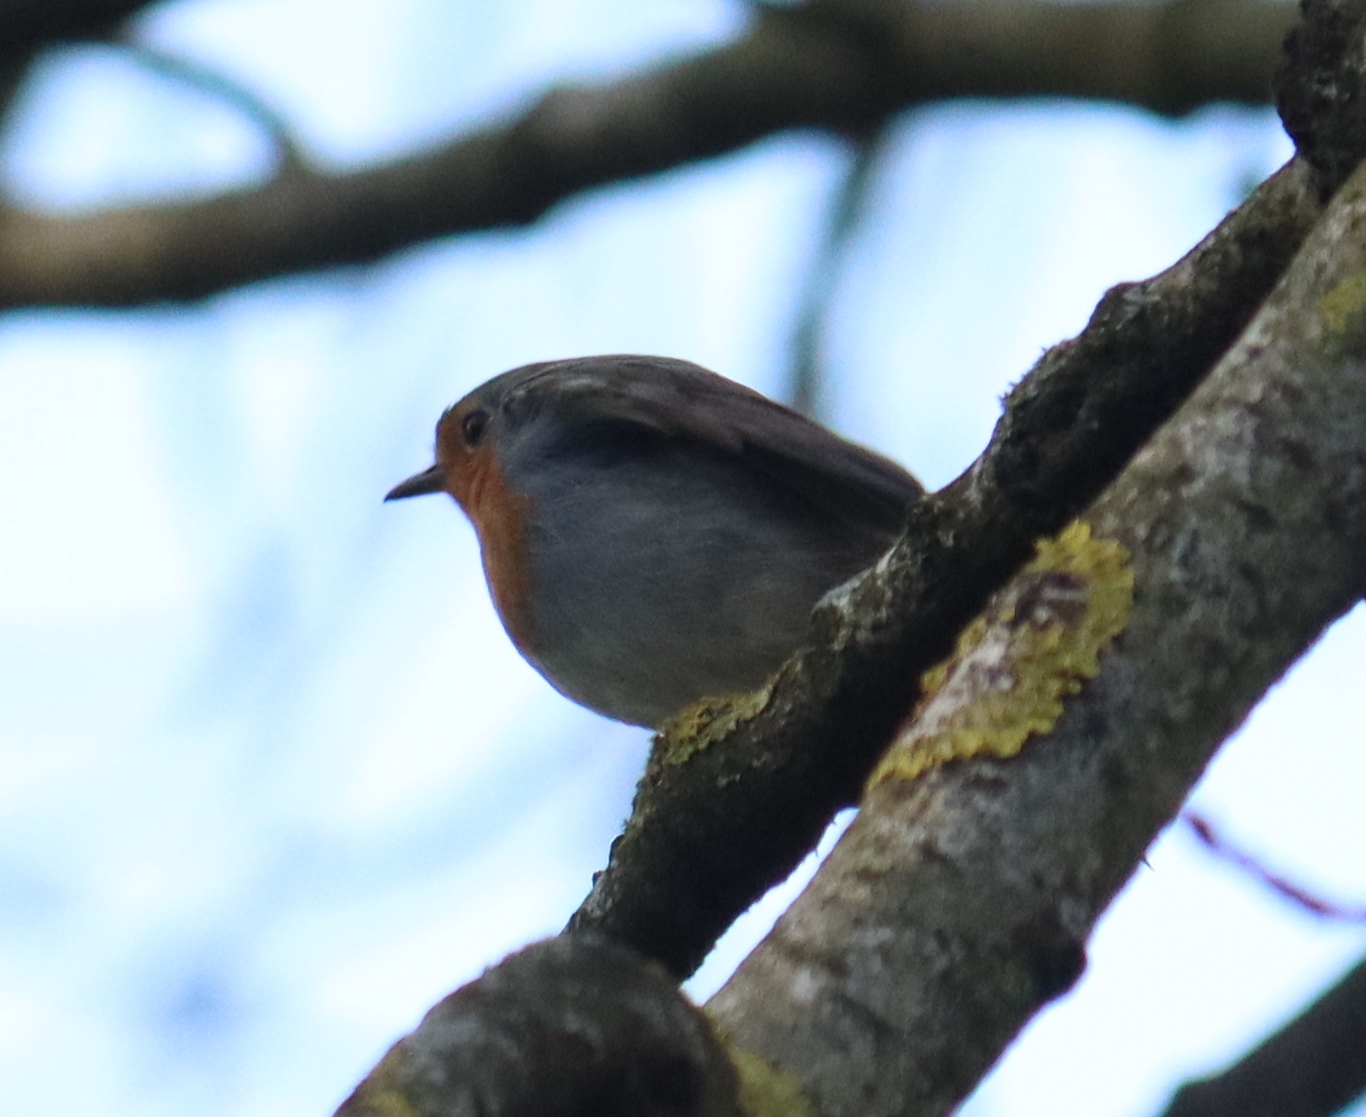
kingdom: Animalia
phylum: Chordata
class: Aves
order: Passeriformes
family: Muscicapidae
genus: Erithacus
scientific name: Erithacus rubecula
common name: European robin
